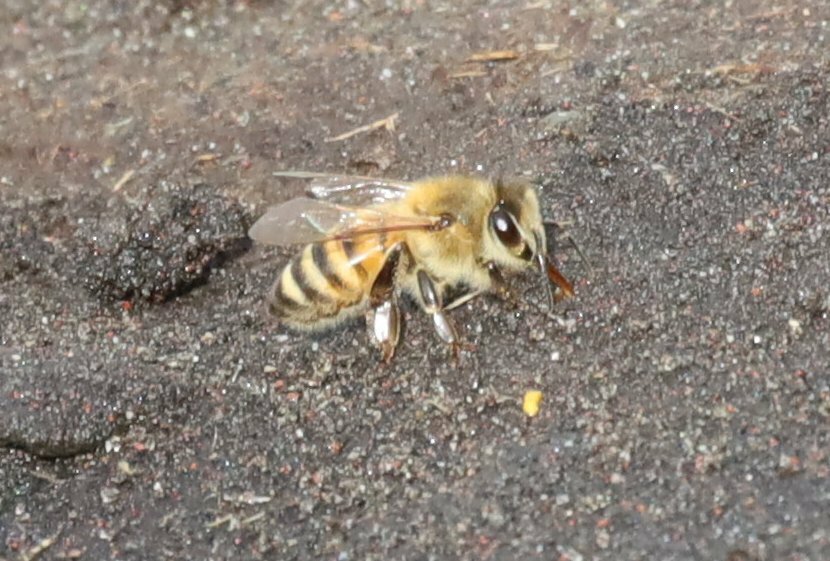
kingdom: Animalia
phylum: Arthropoda
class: Insecta
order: Hymenoptera
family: Apidae
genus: Apis
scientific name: Apis mellifera
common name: Honey bee
